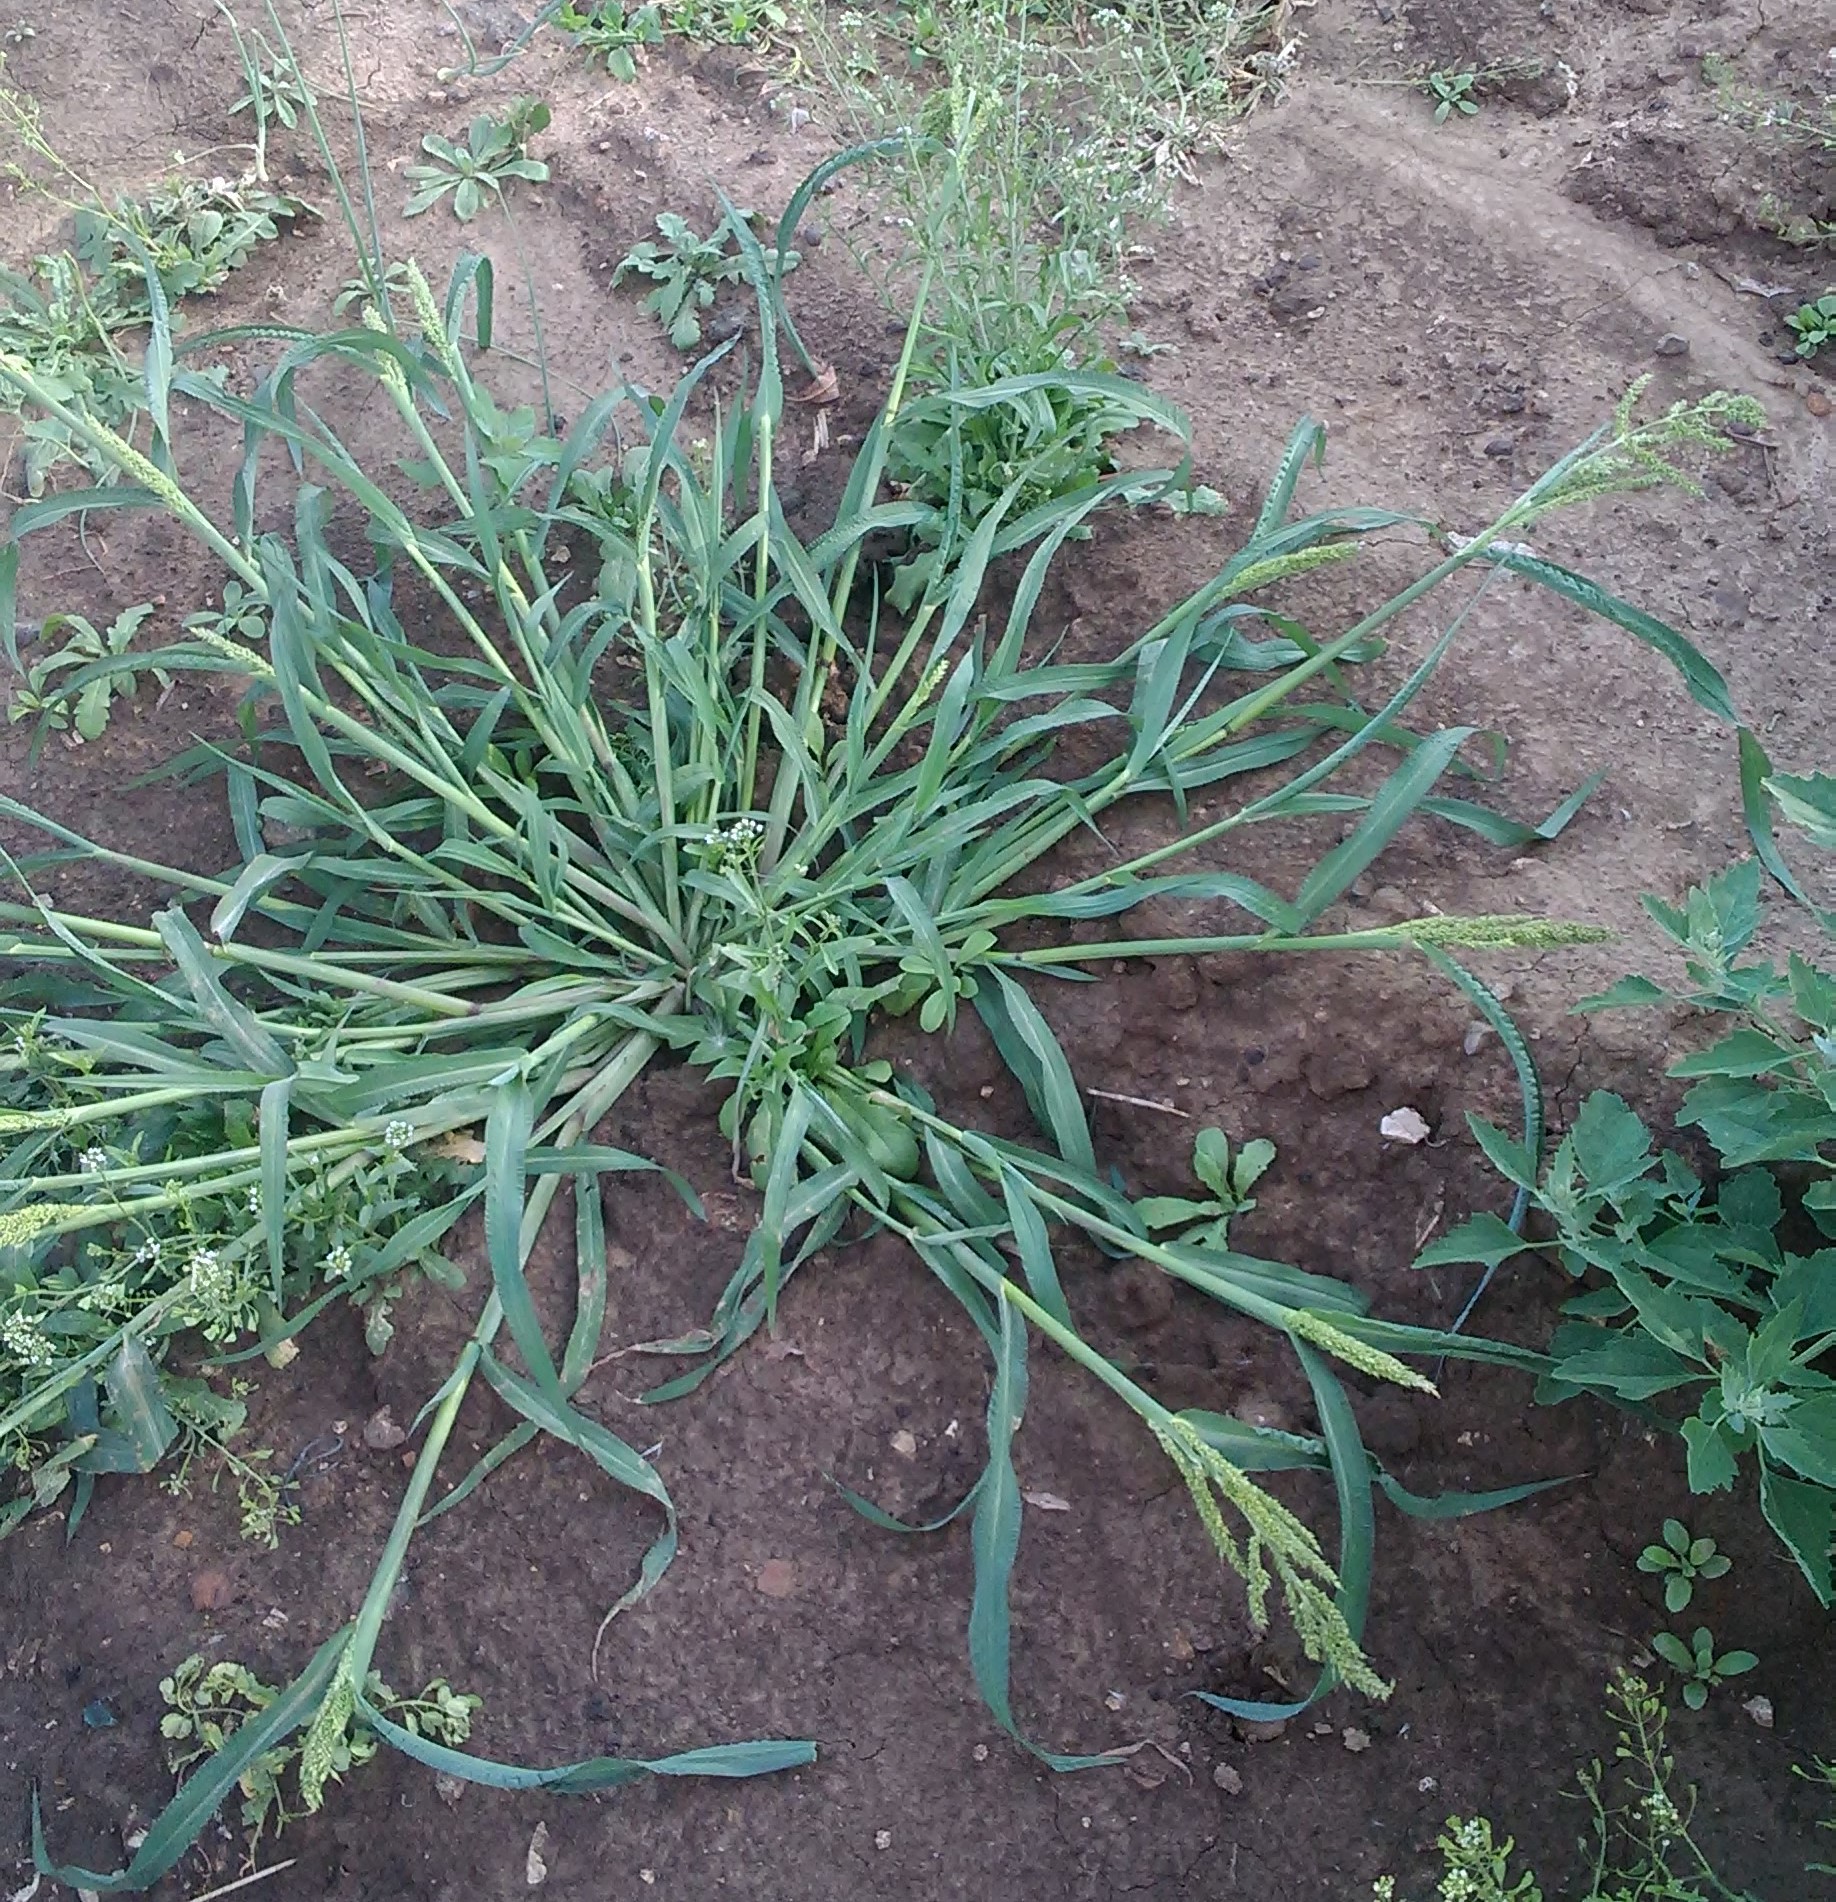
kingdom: Plantae
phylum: Tracheophyta
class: Liliopsida
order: Poales
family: Poaceae
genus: Echinochloa
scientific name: Echinochloa crus-galli
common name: Cockspur
